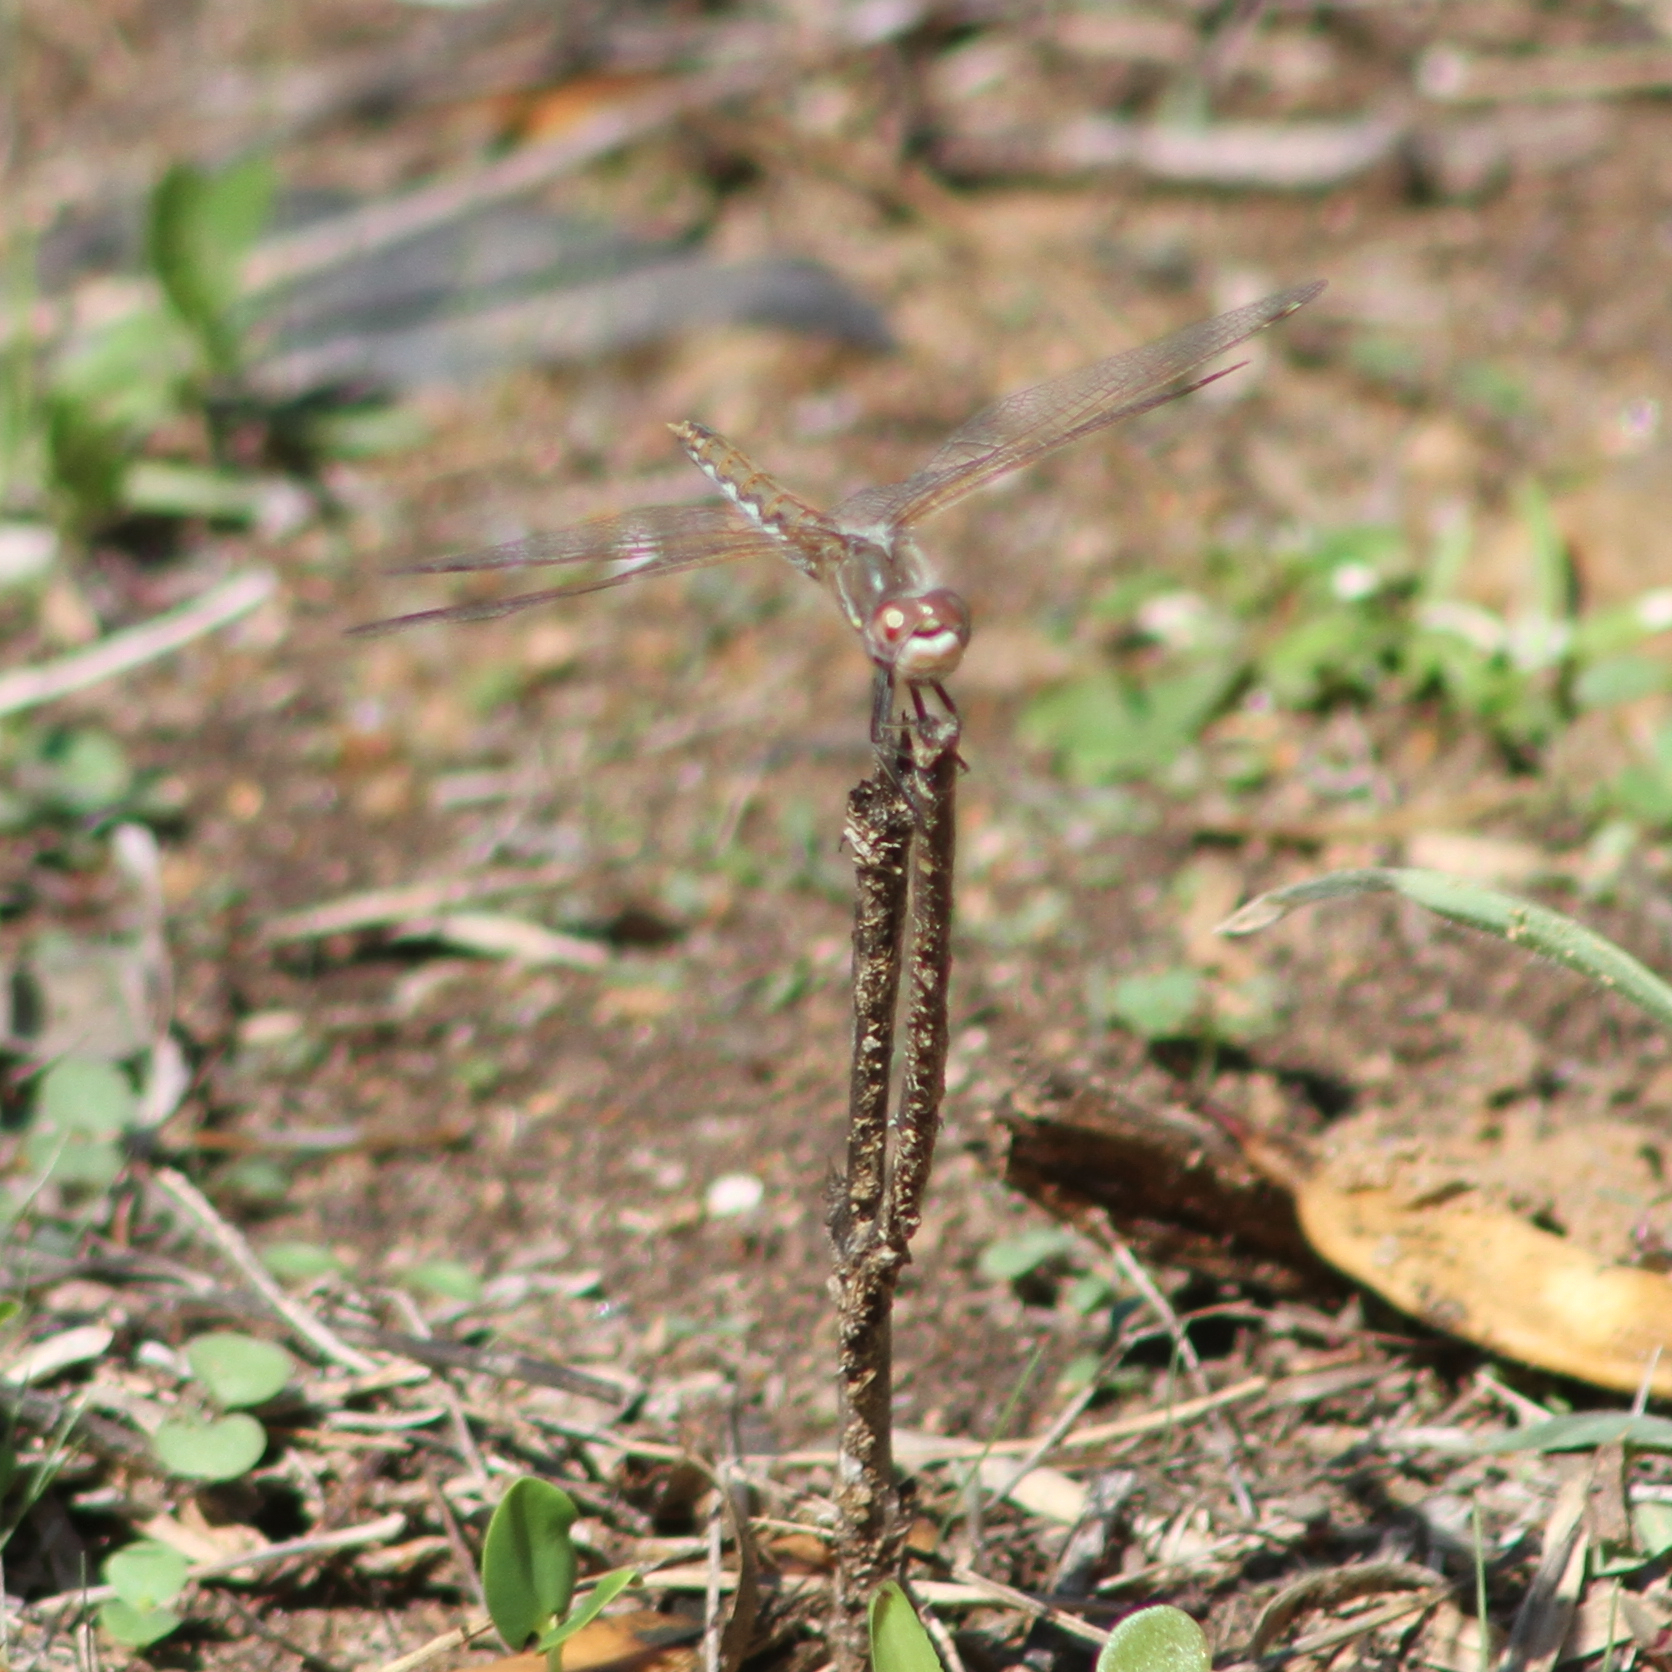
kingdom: Animalia
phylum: Arthropoda
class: Insecta
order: Odonata
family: Libellulidae
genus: Sympetrum
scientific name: Sympetrum corruptum
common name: Variegated meadowhawk
